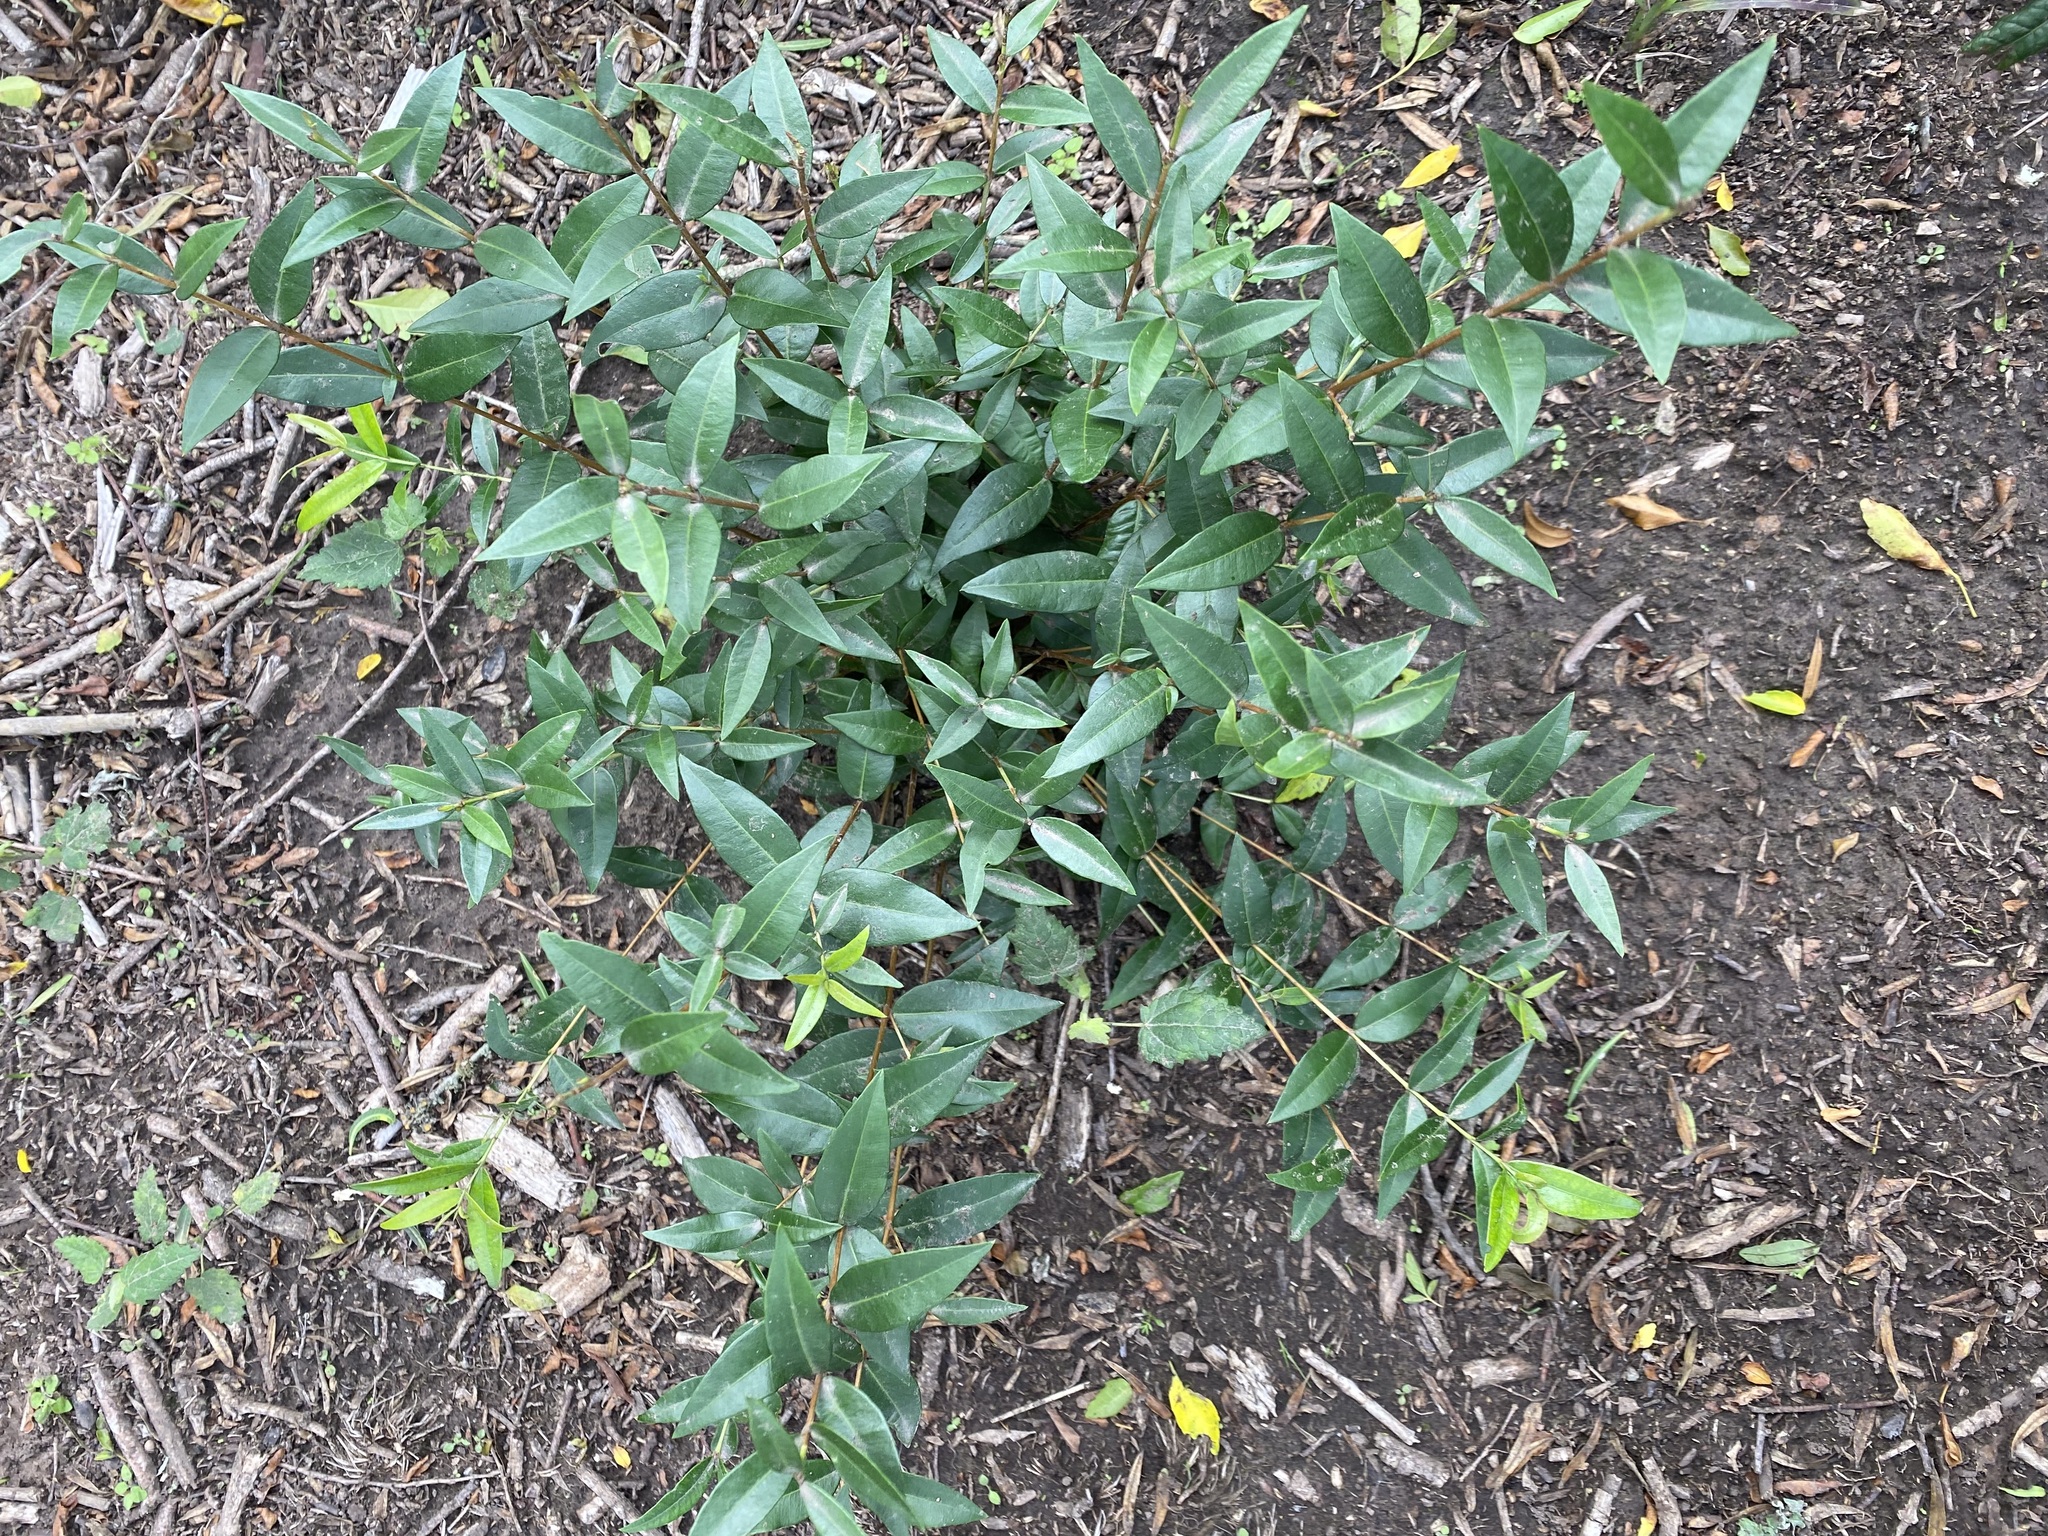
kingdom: Plantae
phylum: Tracheophyta
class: Magnoliopsida
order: Myrtales
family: Myrtaceae
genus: Blepharocalyx
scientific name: Blepharocalyx salicifolius
